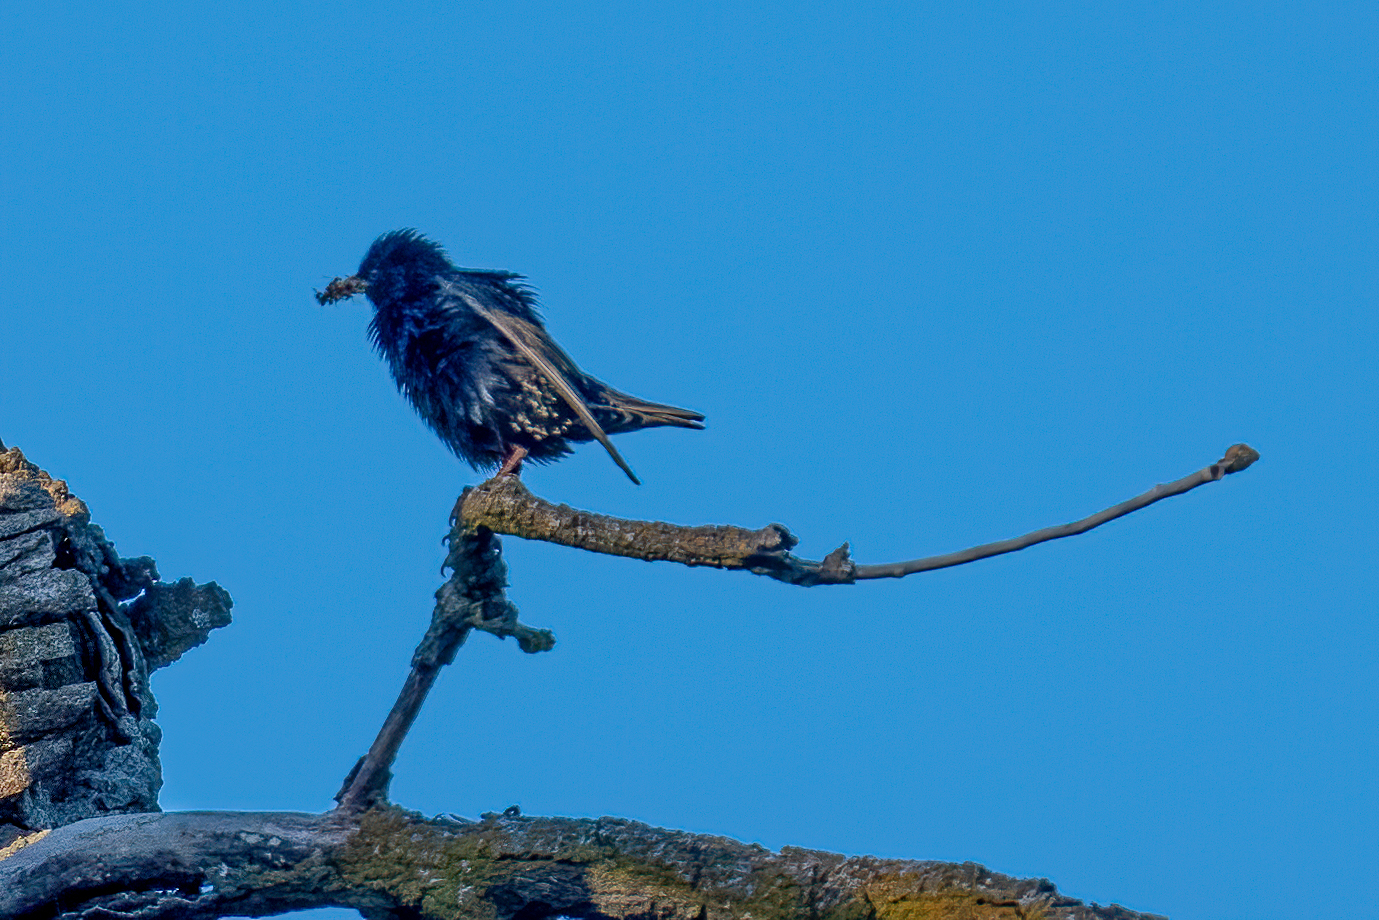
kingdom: Animalia
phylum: Chordata
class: Aves
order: Passeriformes
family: Sturnidae
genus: Sturnus
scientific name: Sturnus vulgaris
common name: Common starling
